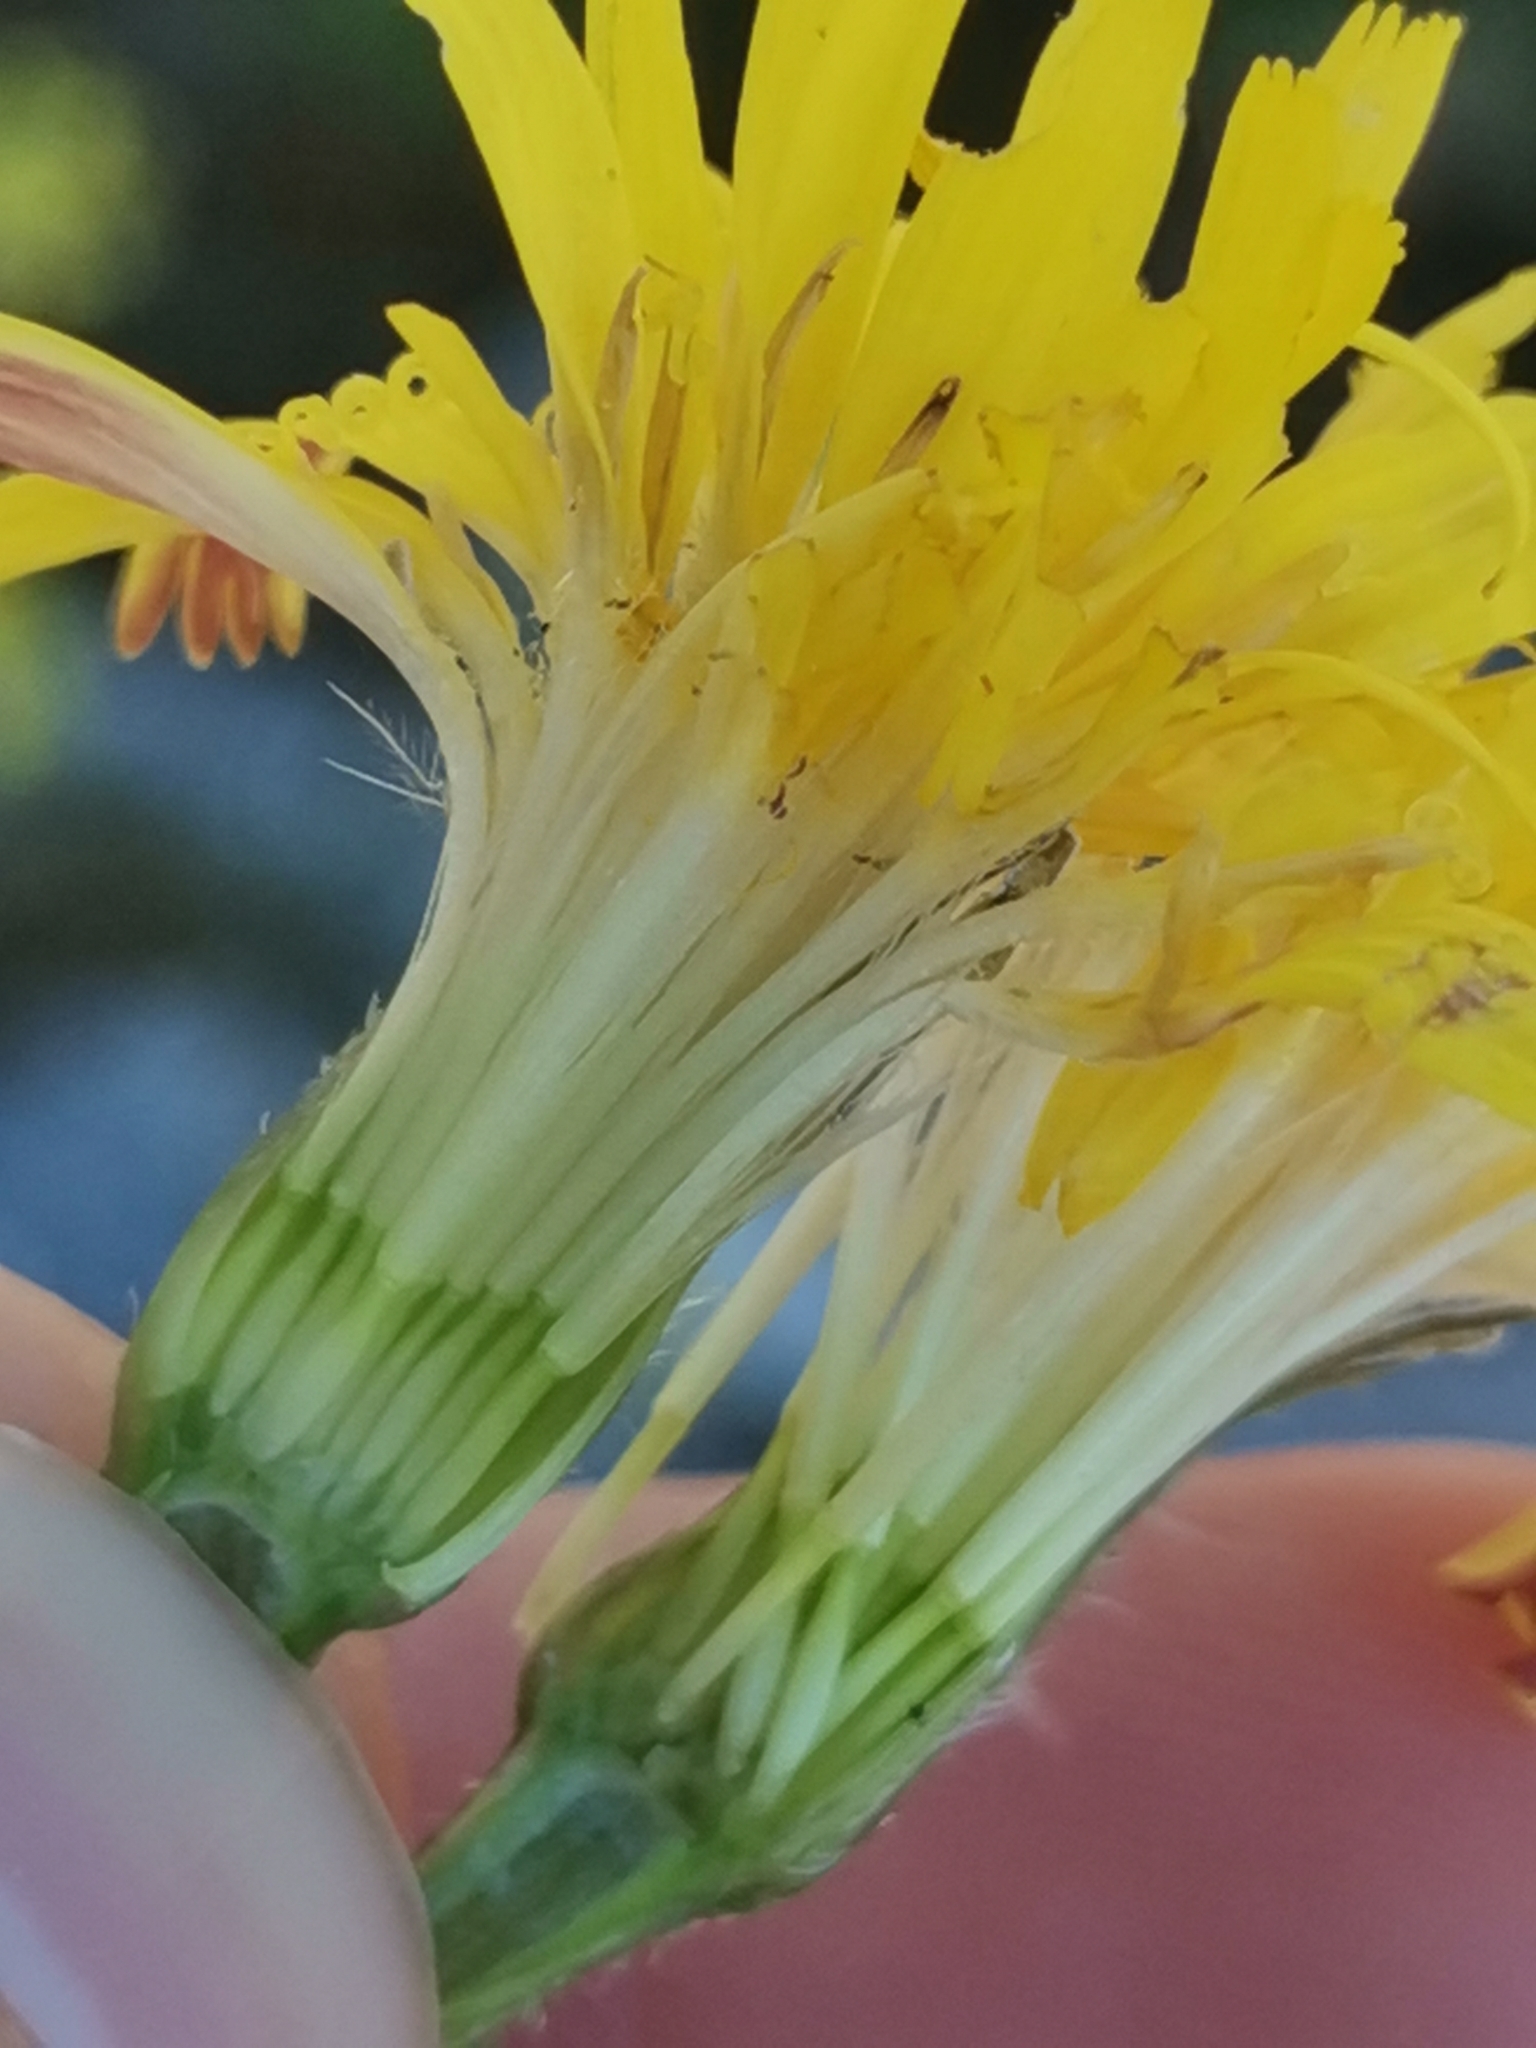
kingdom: Plantae
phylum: Tracheophyta
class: Magnoliopsida
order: Asterales
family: Asteraceae
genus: Leontodon
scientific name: Leontodon crispus
